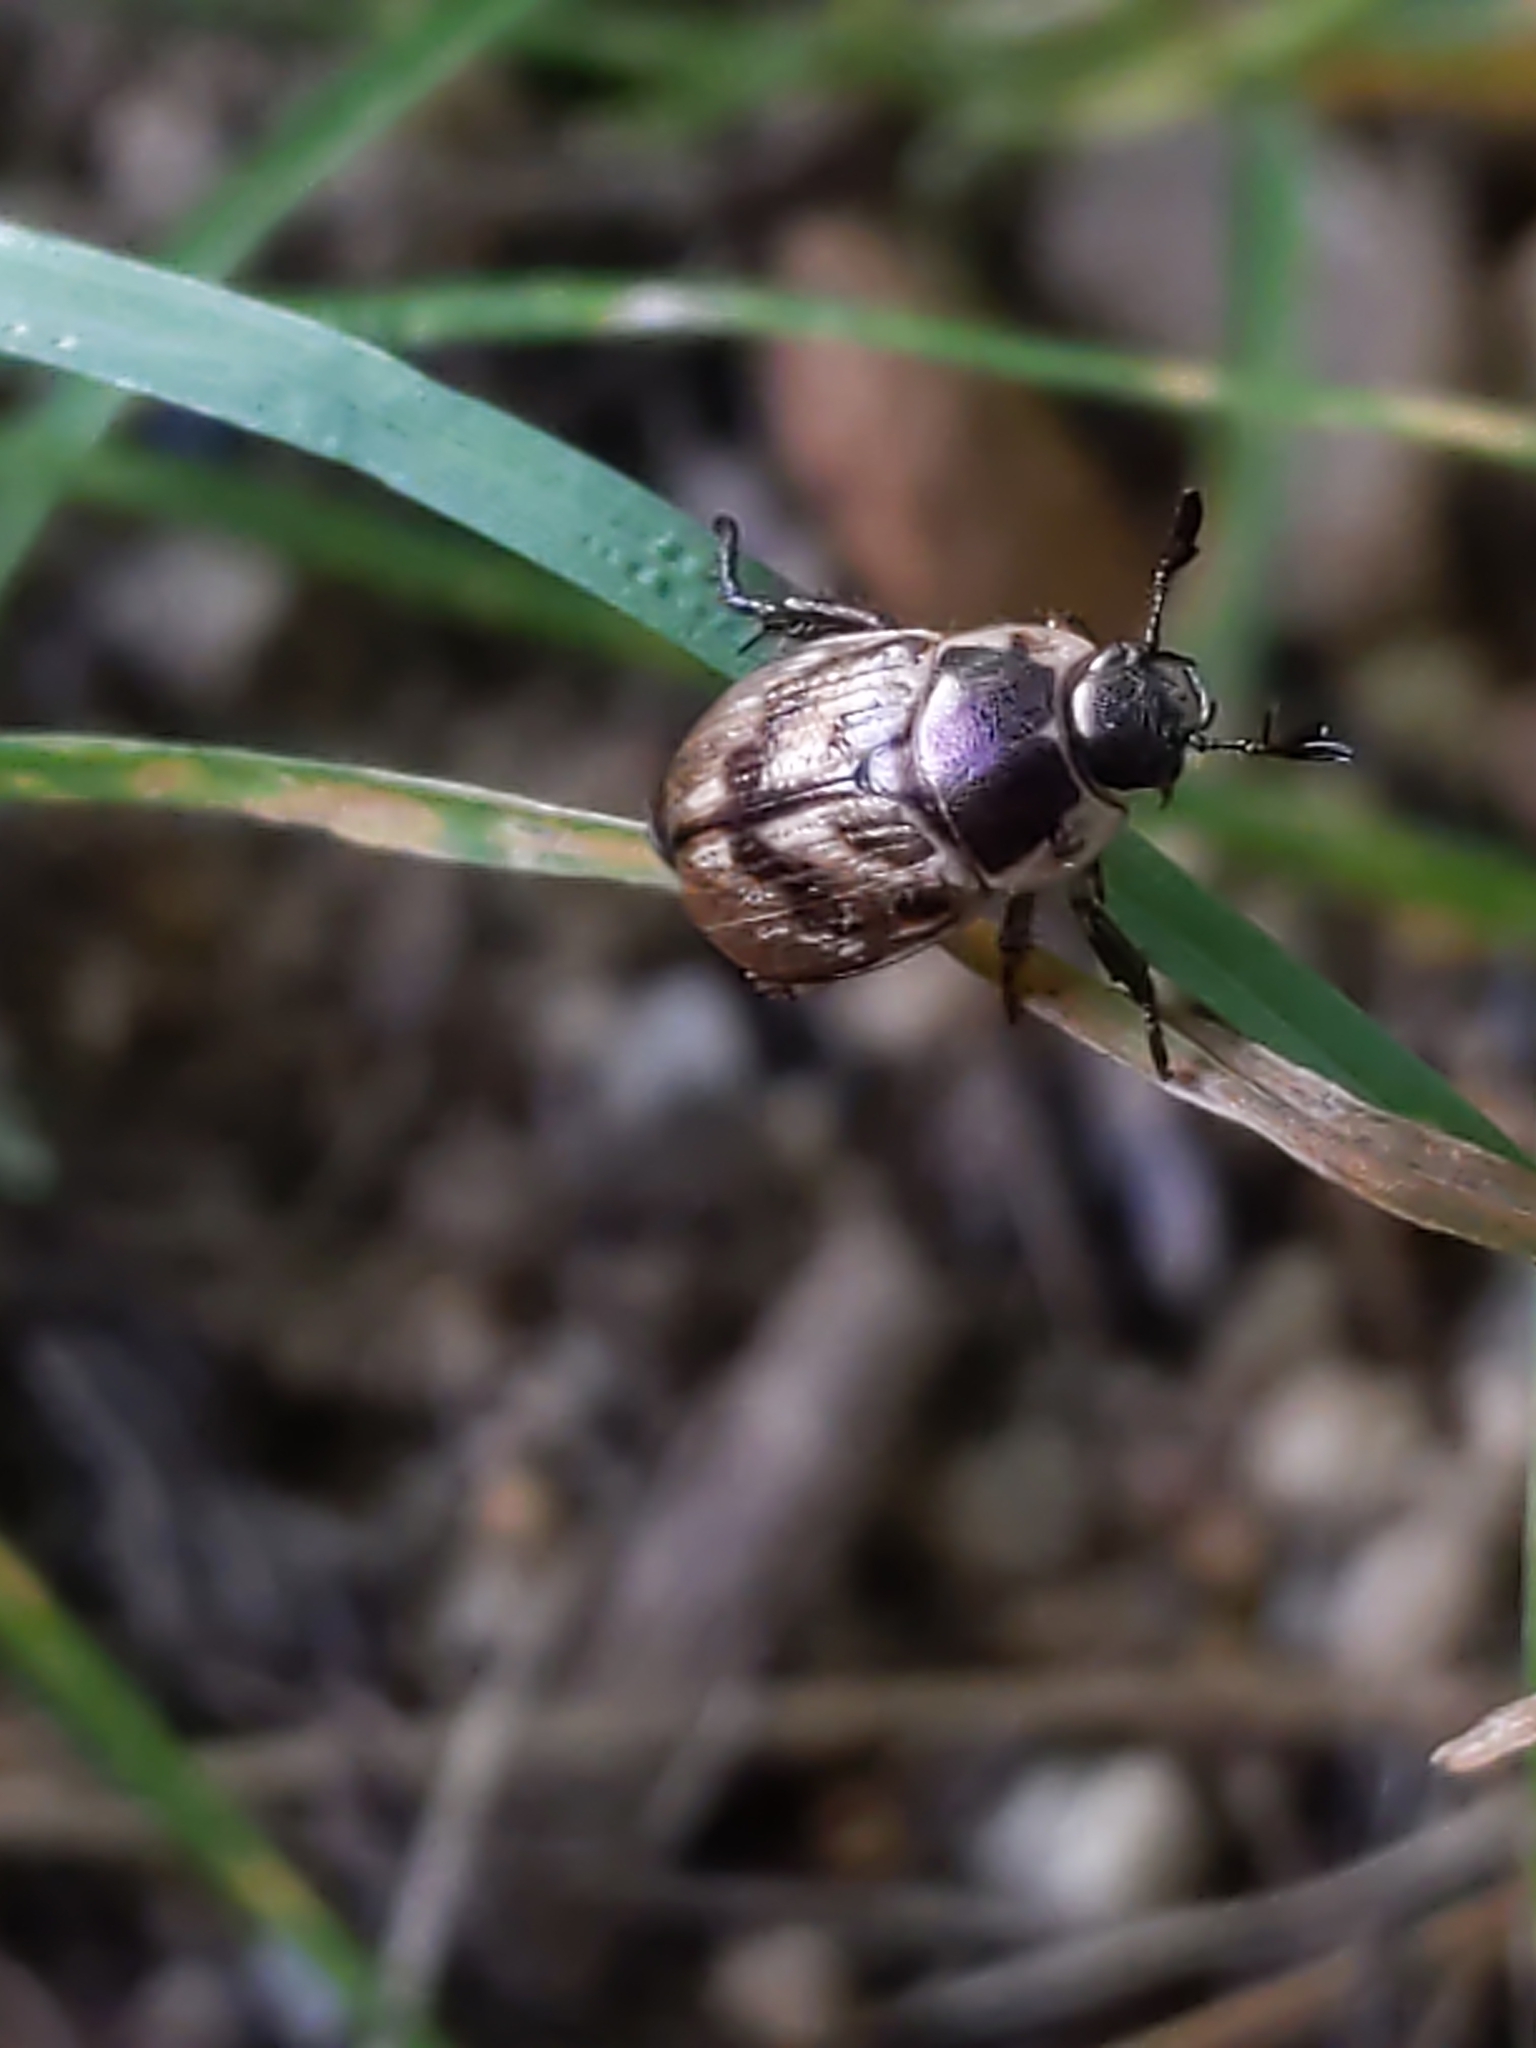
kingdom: Animalia
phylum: Arthropoda
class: Insecta
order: Coleoptera
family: Scarabaeidae
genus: Exomala
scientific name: Exomala orientalis
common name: Oriental beetle
